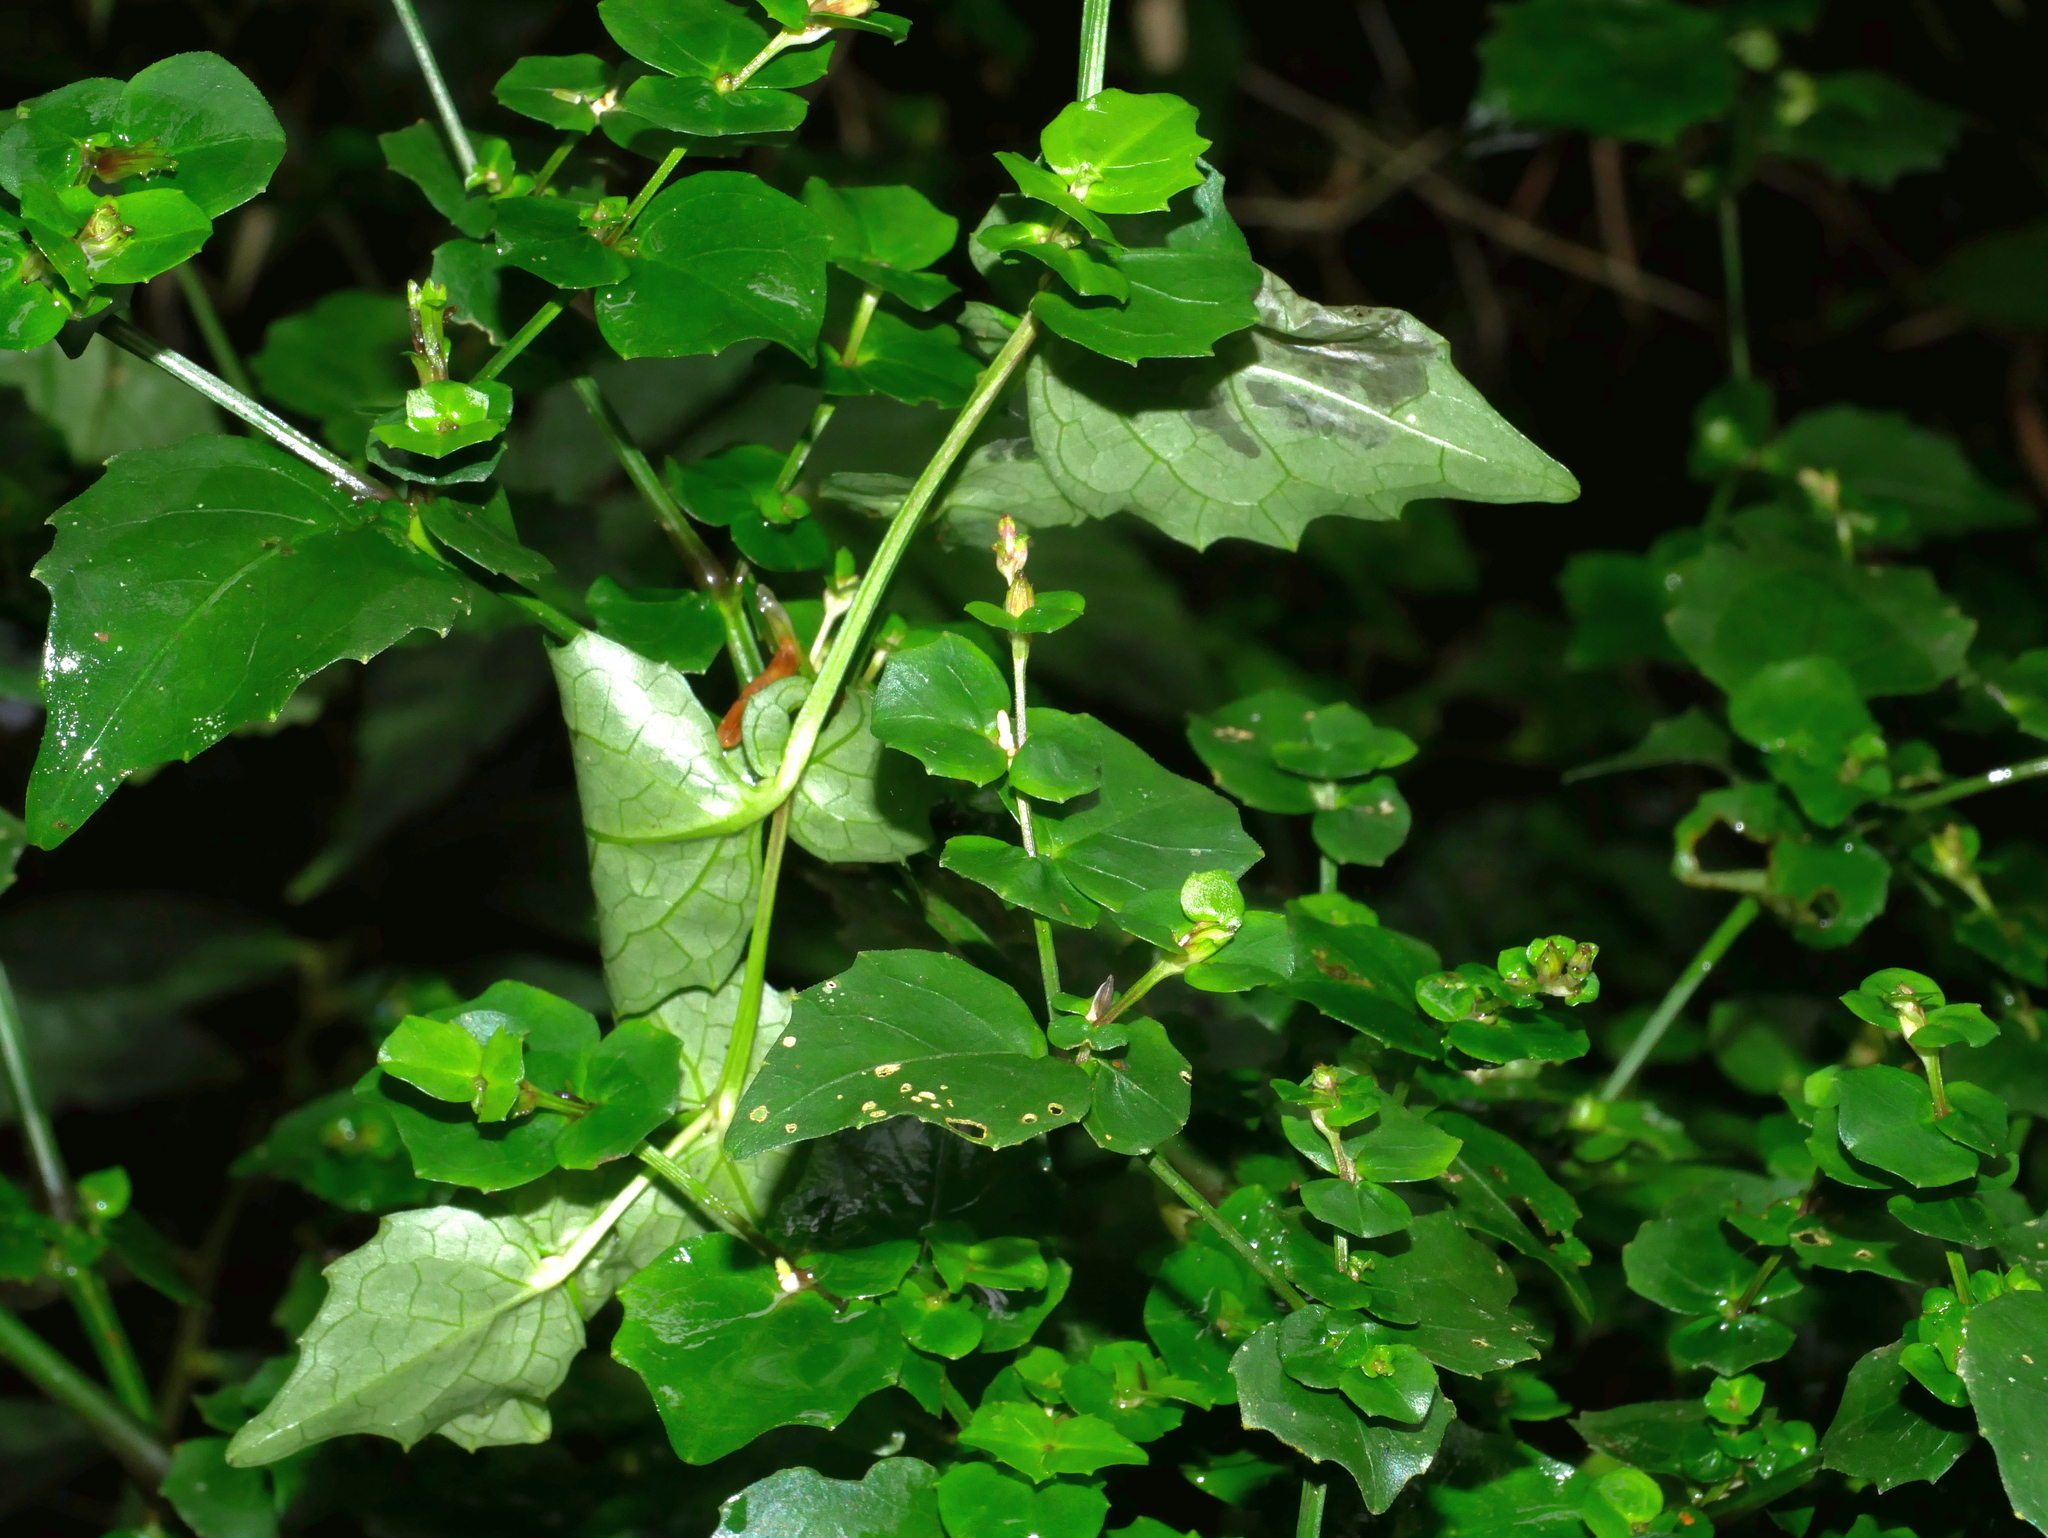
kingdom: Plantae
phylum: Tracheophyta
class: Magnoliopsida
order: Lamiales
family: Acanthaceae
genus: Strobilanthes
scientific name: Strobilanthes flexicaulis
